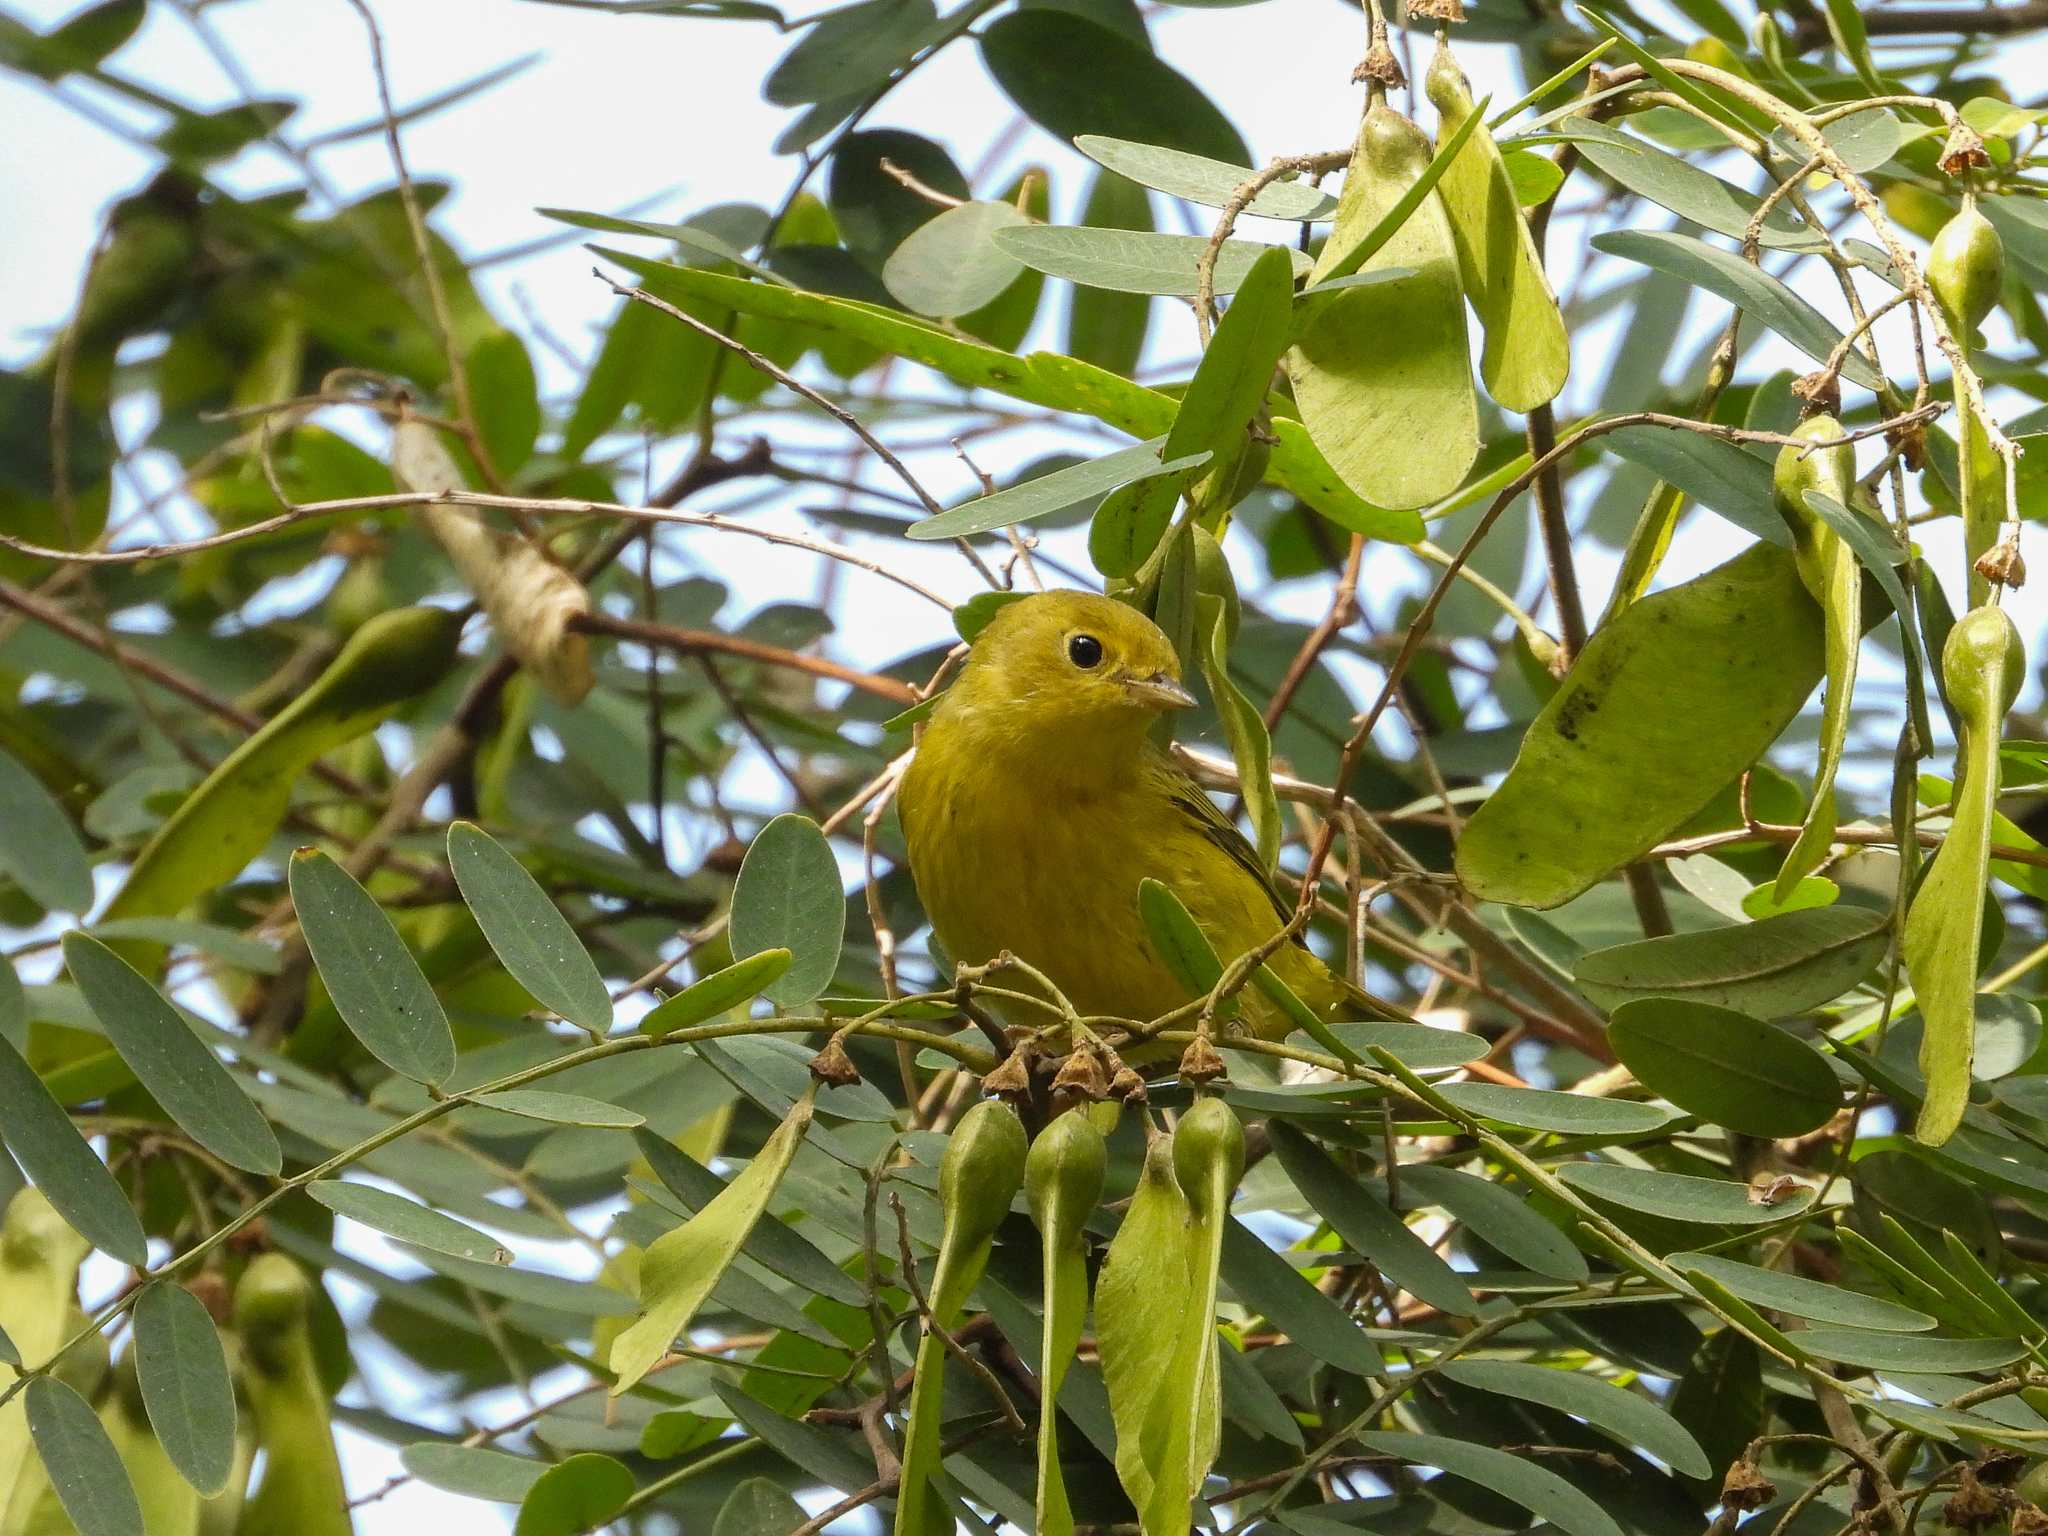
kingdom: Animalia
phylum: Chordata
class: Aves
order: Passeriformes
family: Parulidae
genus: Setophaga
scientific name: Setophaga petechia
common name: Yellow warbler
